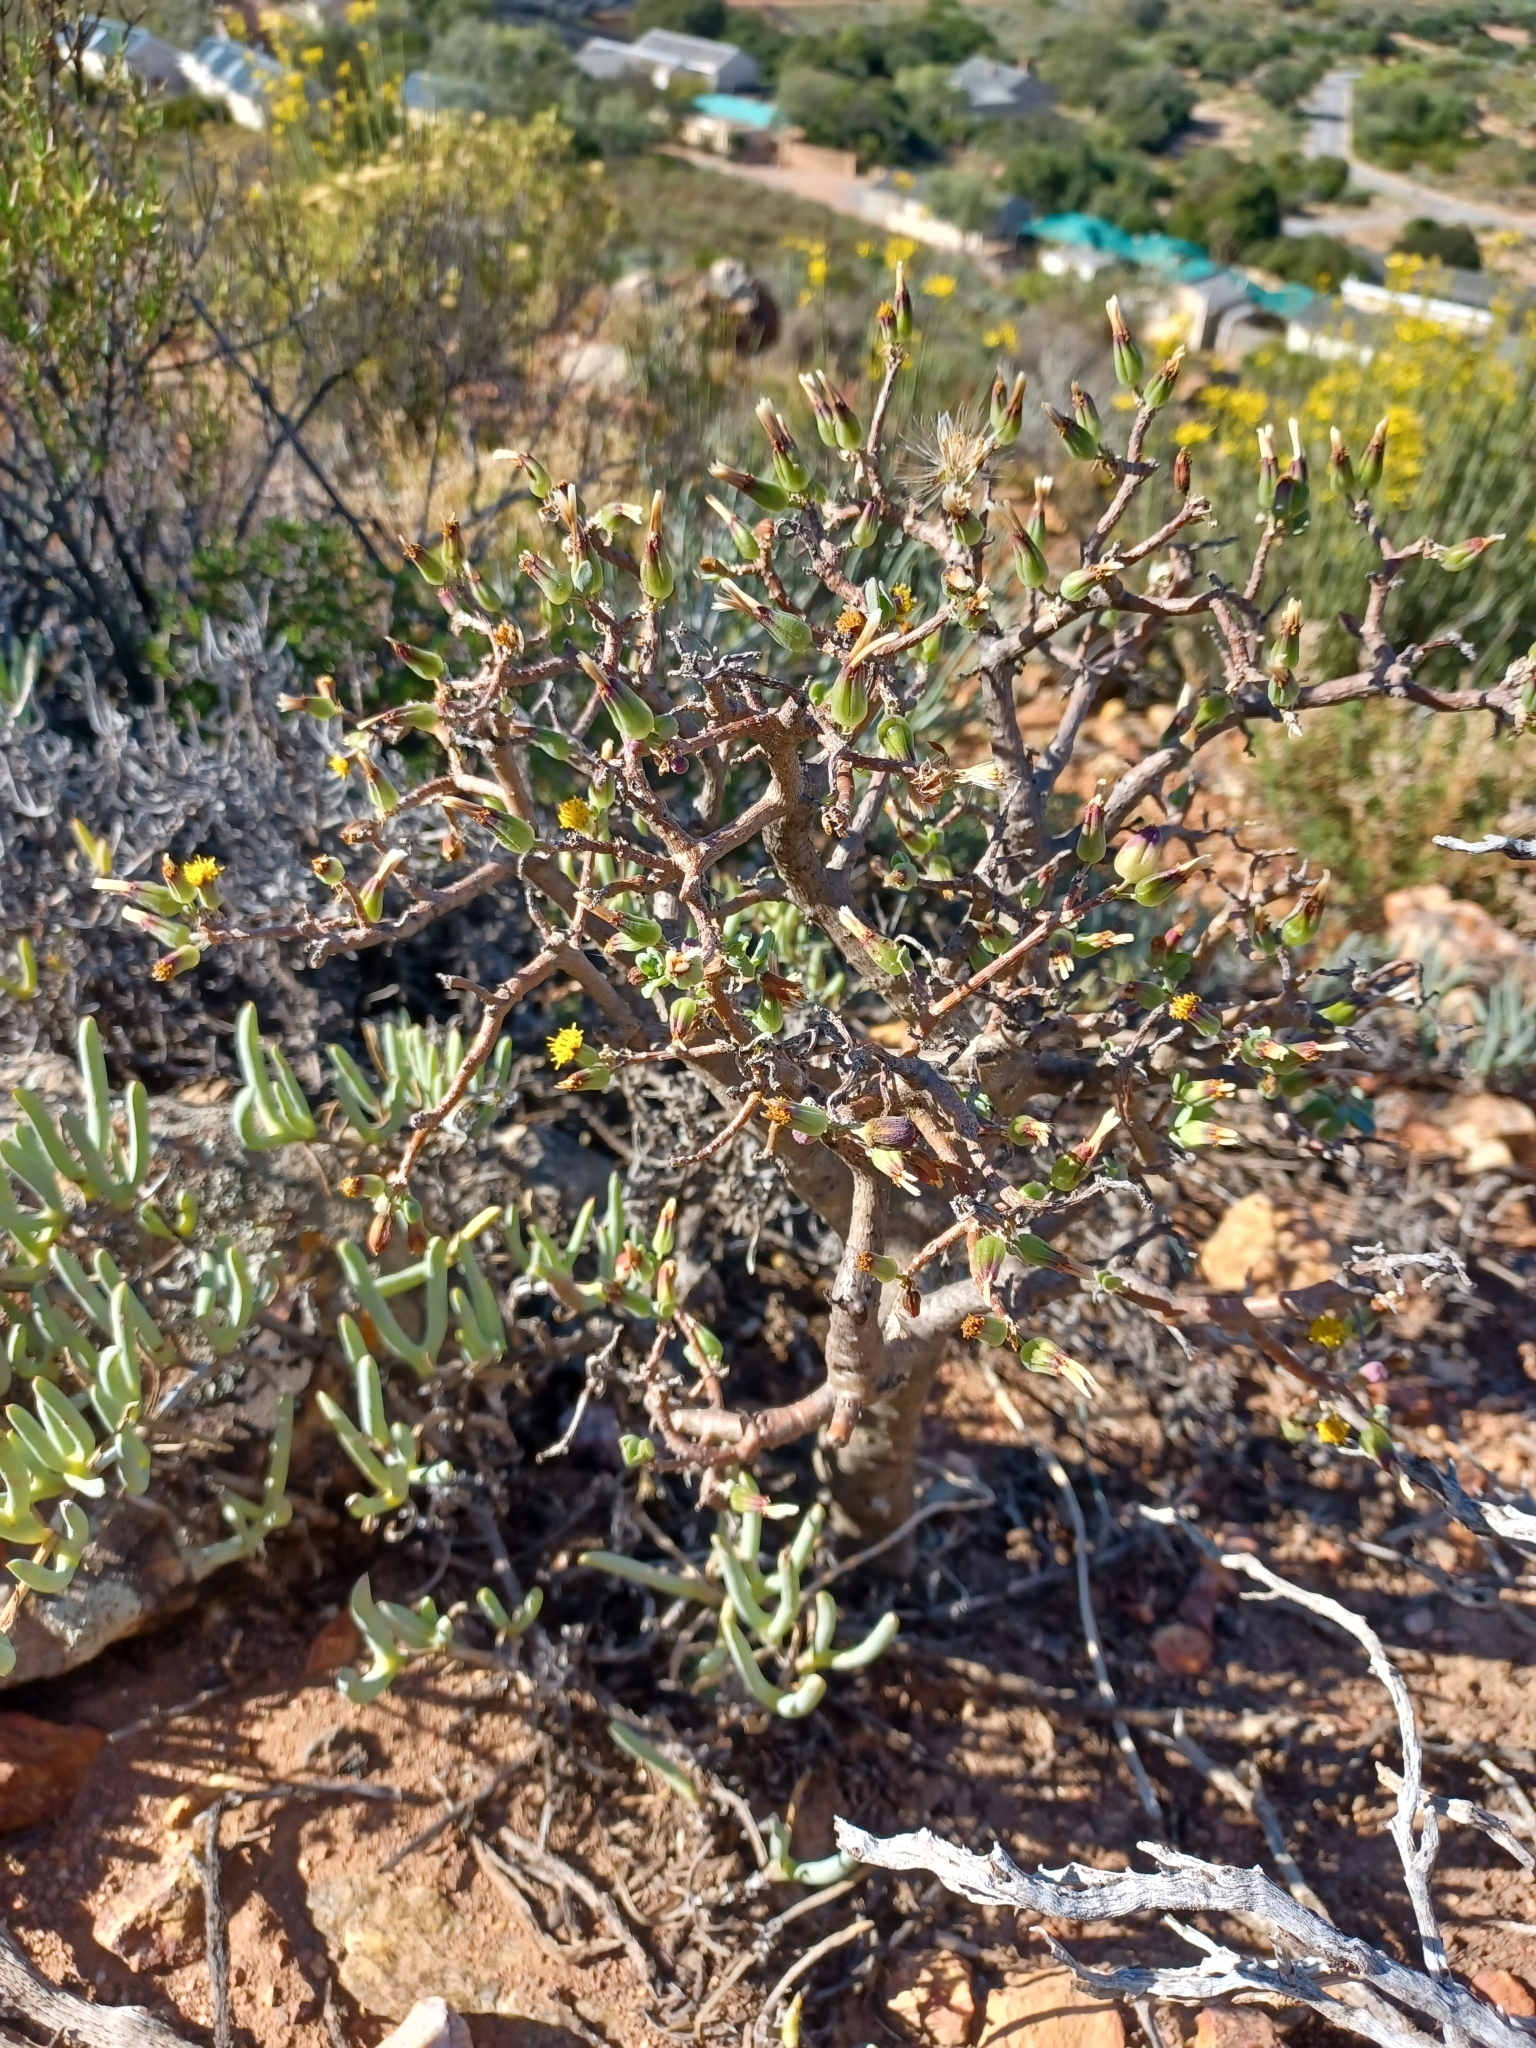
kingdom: Plantae
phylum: Tracheophyta
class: Magnoliopsida
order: Asterales
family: Asteraceae
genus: Othonna
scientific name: Othonna arbuscula
